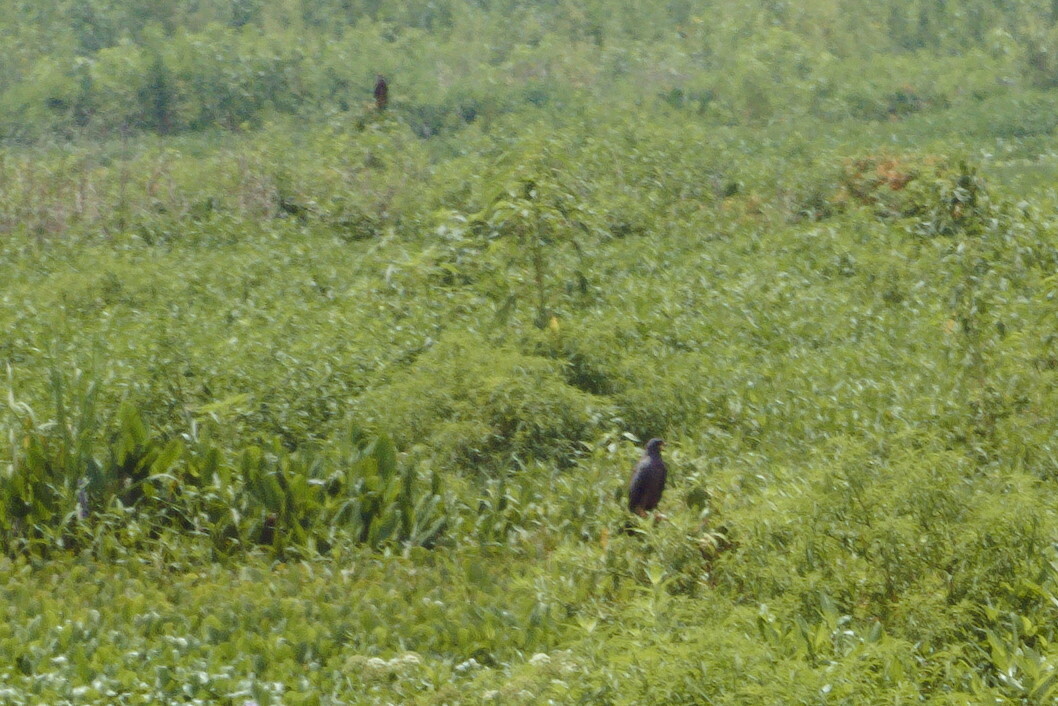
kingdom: Animalia
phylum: Chordata
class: Aves
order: Accipitriformes
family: Accipitridae
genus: Rostrhamus
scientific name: Rostrhamus sociabilis
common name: Snail kite
